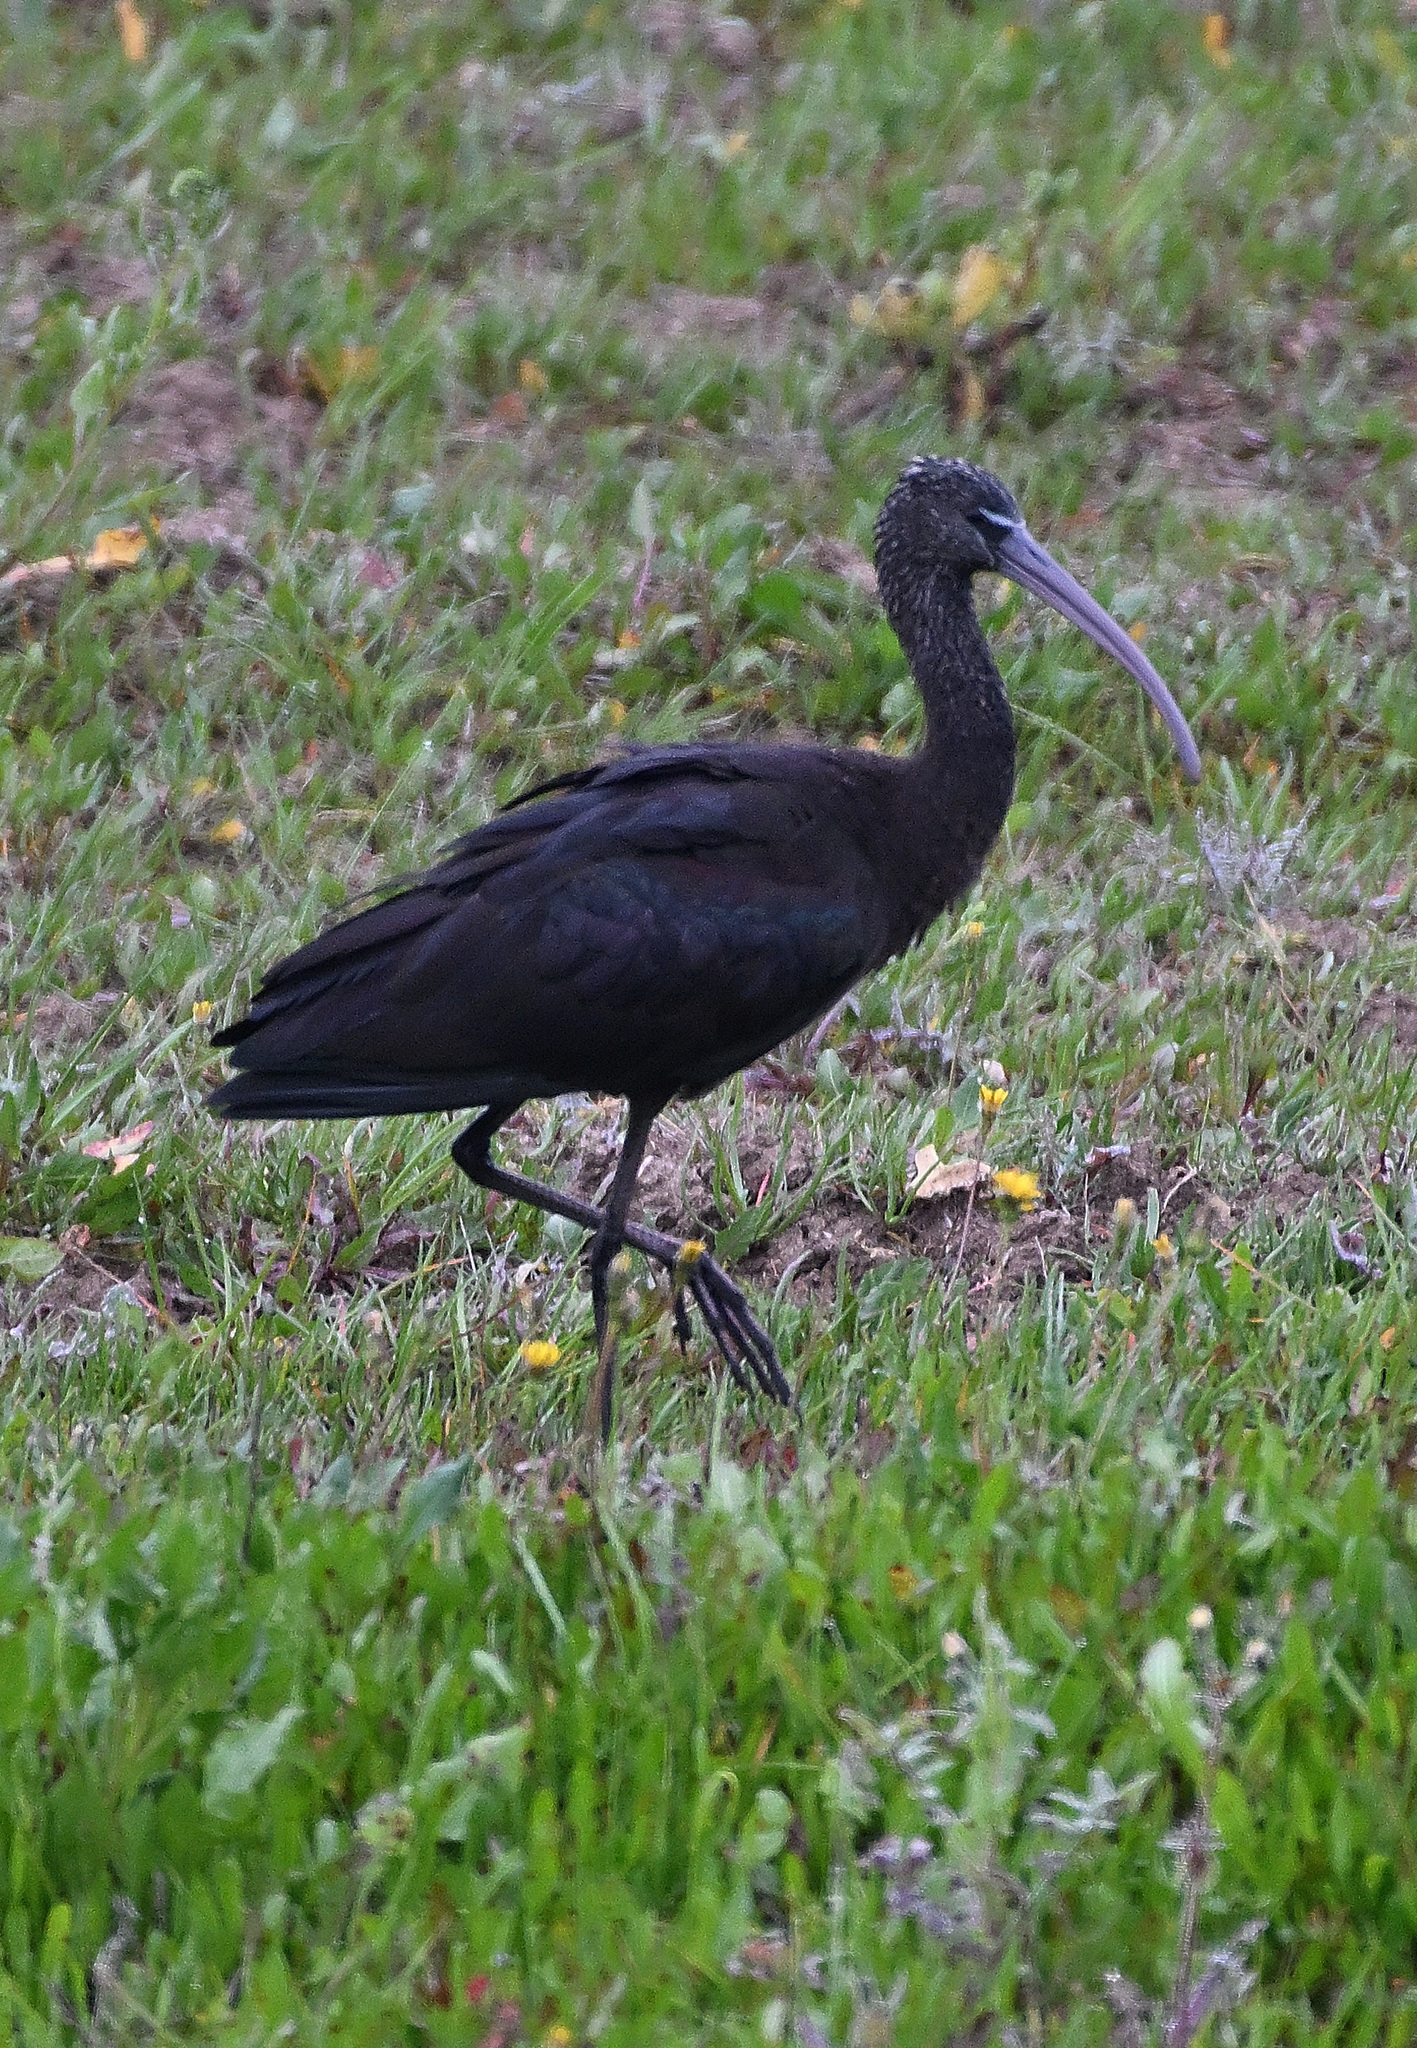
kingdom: Animalia
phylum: Chordata
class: Aves
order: Pelecaniformes
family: Threskiornithidae
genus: Plegadis
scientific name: Plegadis falcinellus
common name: Glossy ibis
